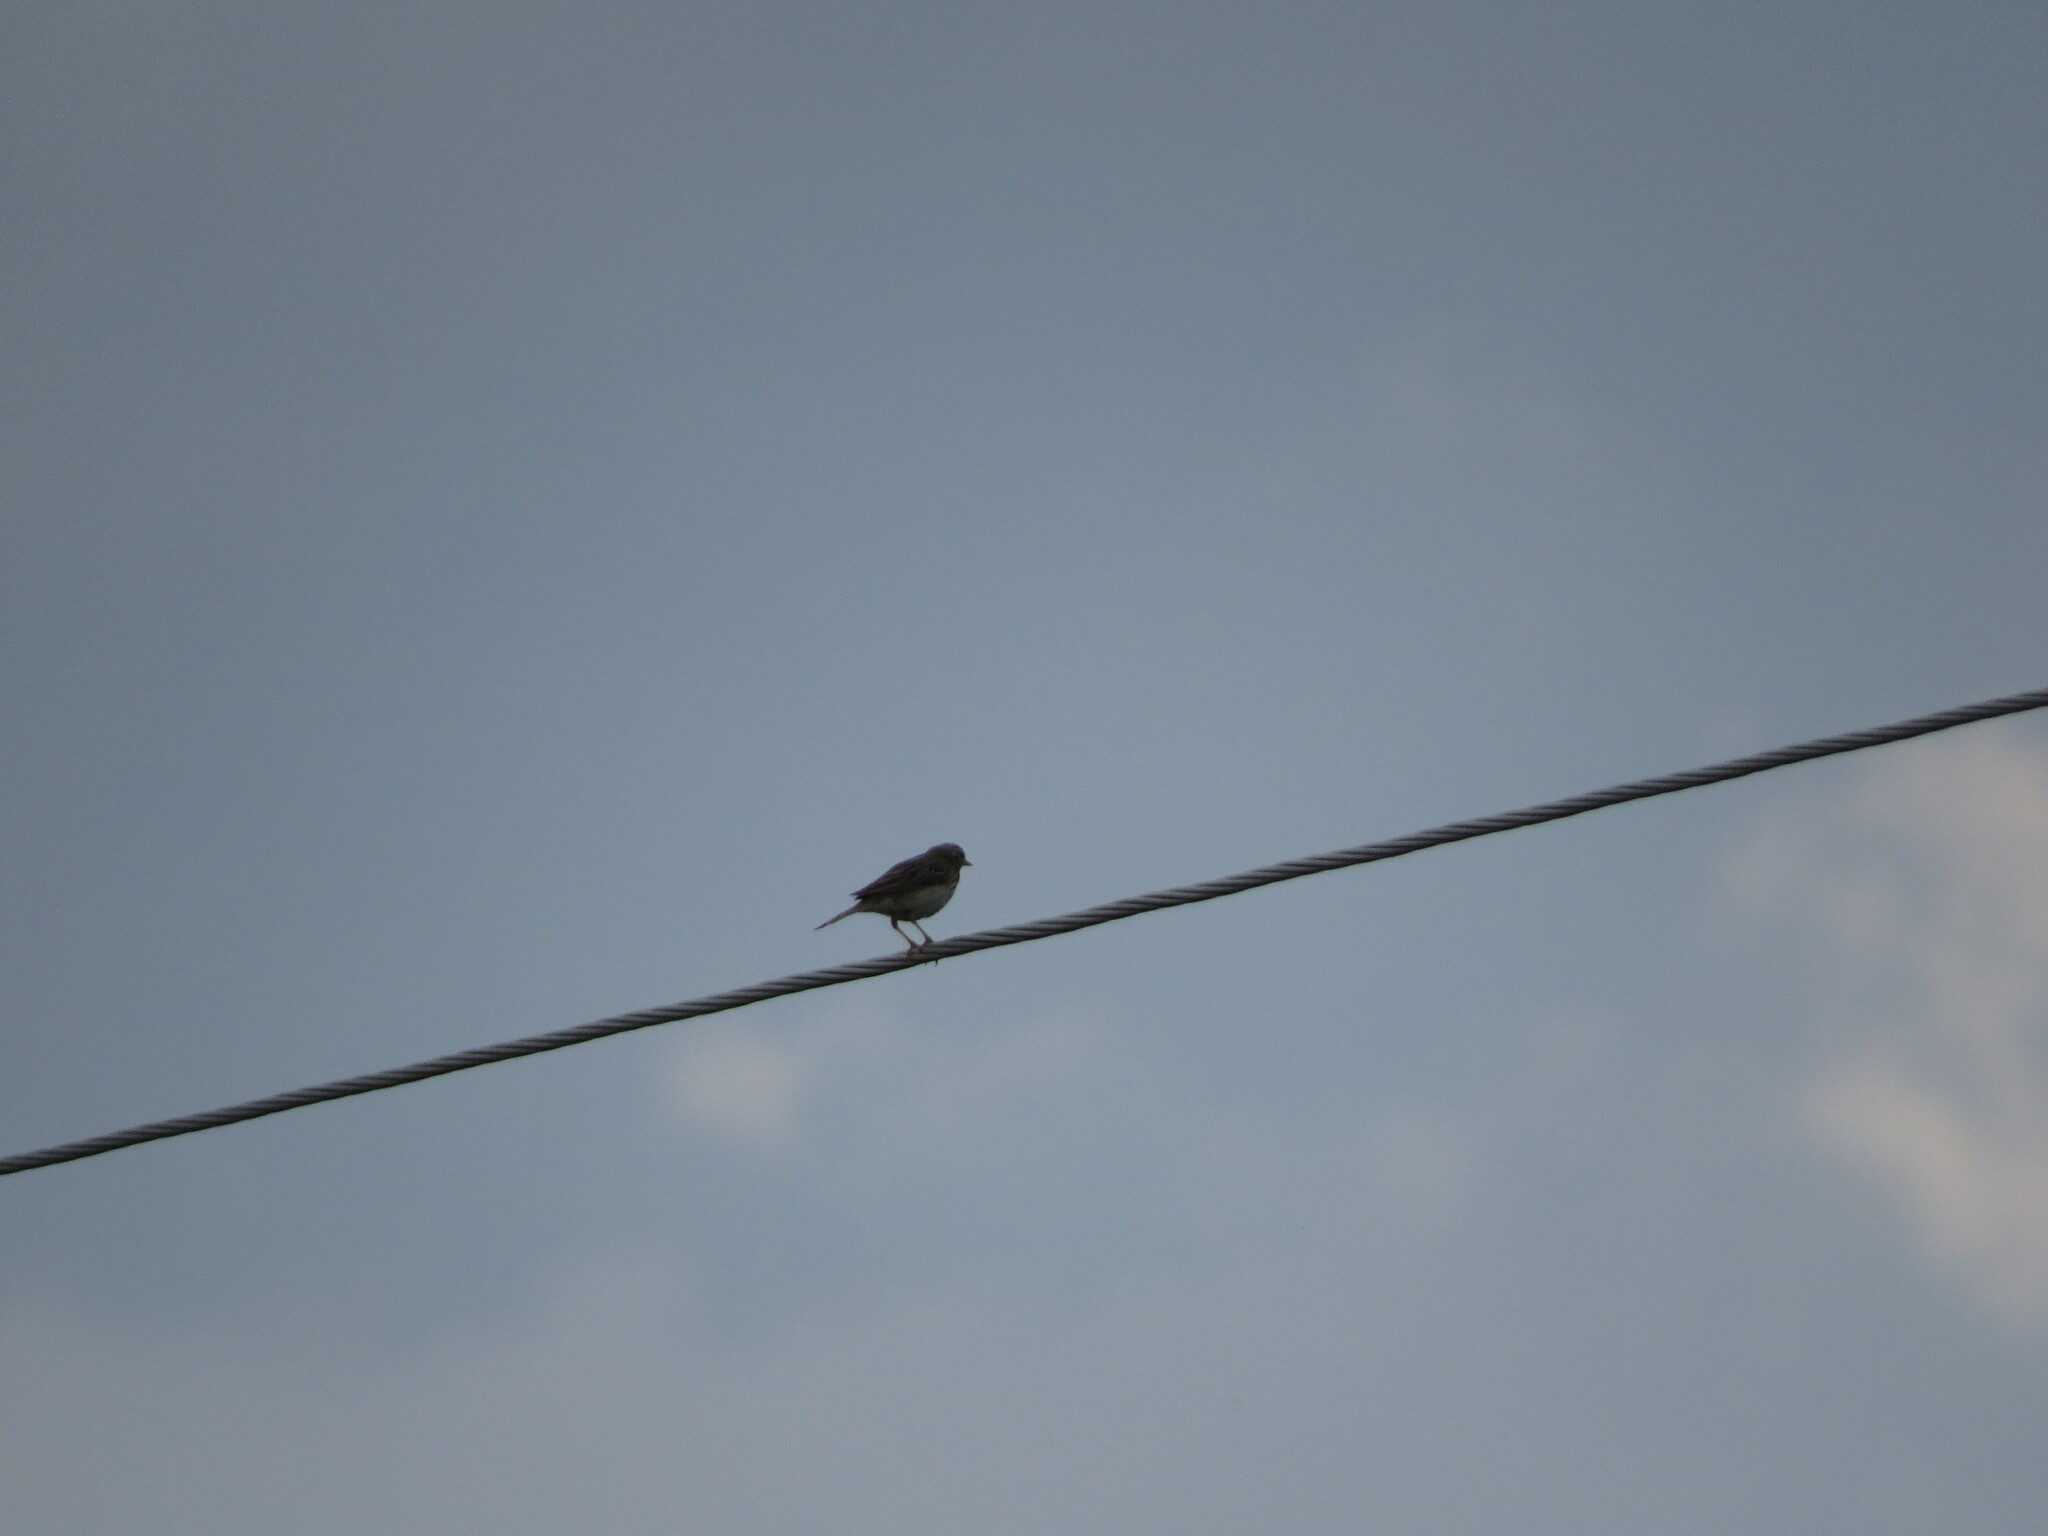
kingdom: Animalia
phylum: Chordata
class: Aves
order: Passeriformes
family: Motacillidae
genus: Anthus
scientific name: Anthus trivialis
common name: Tree pipit
